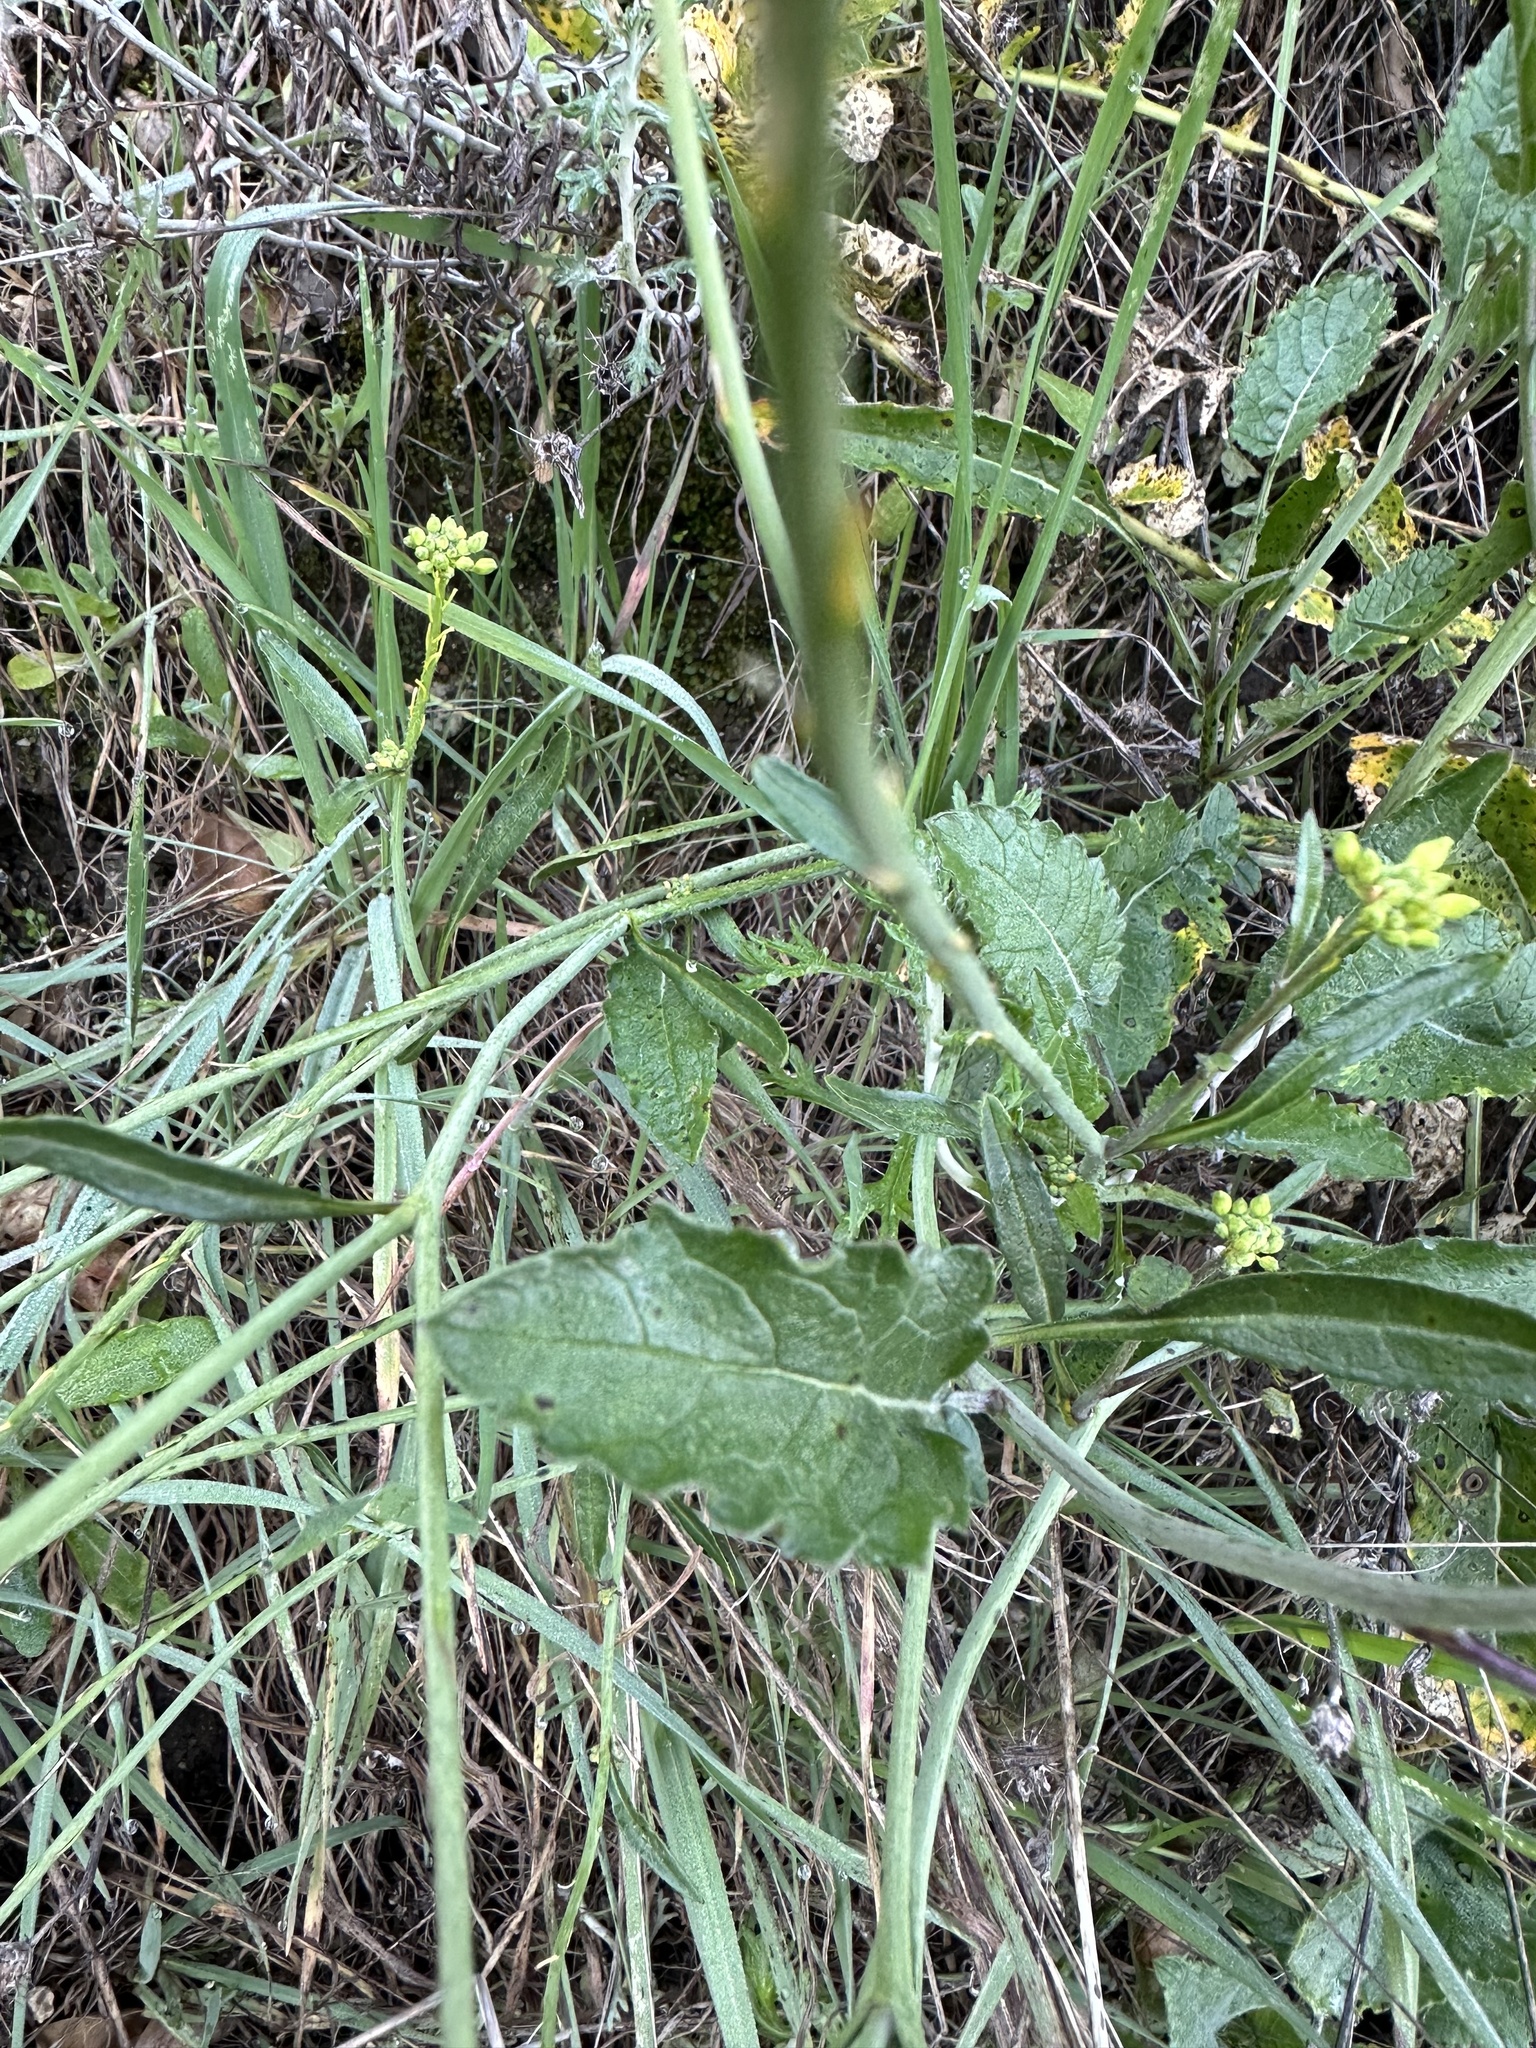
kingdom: Plantae
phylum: Tracheophyta
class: Magnoliopsida
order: Brassicales
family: Brassicaceae
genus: Hirschfeldia
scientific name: Hirschfeldia incana
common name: Hoary mustard
